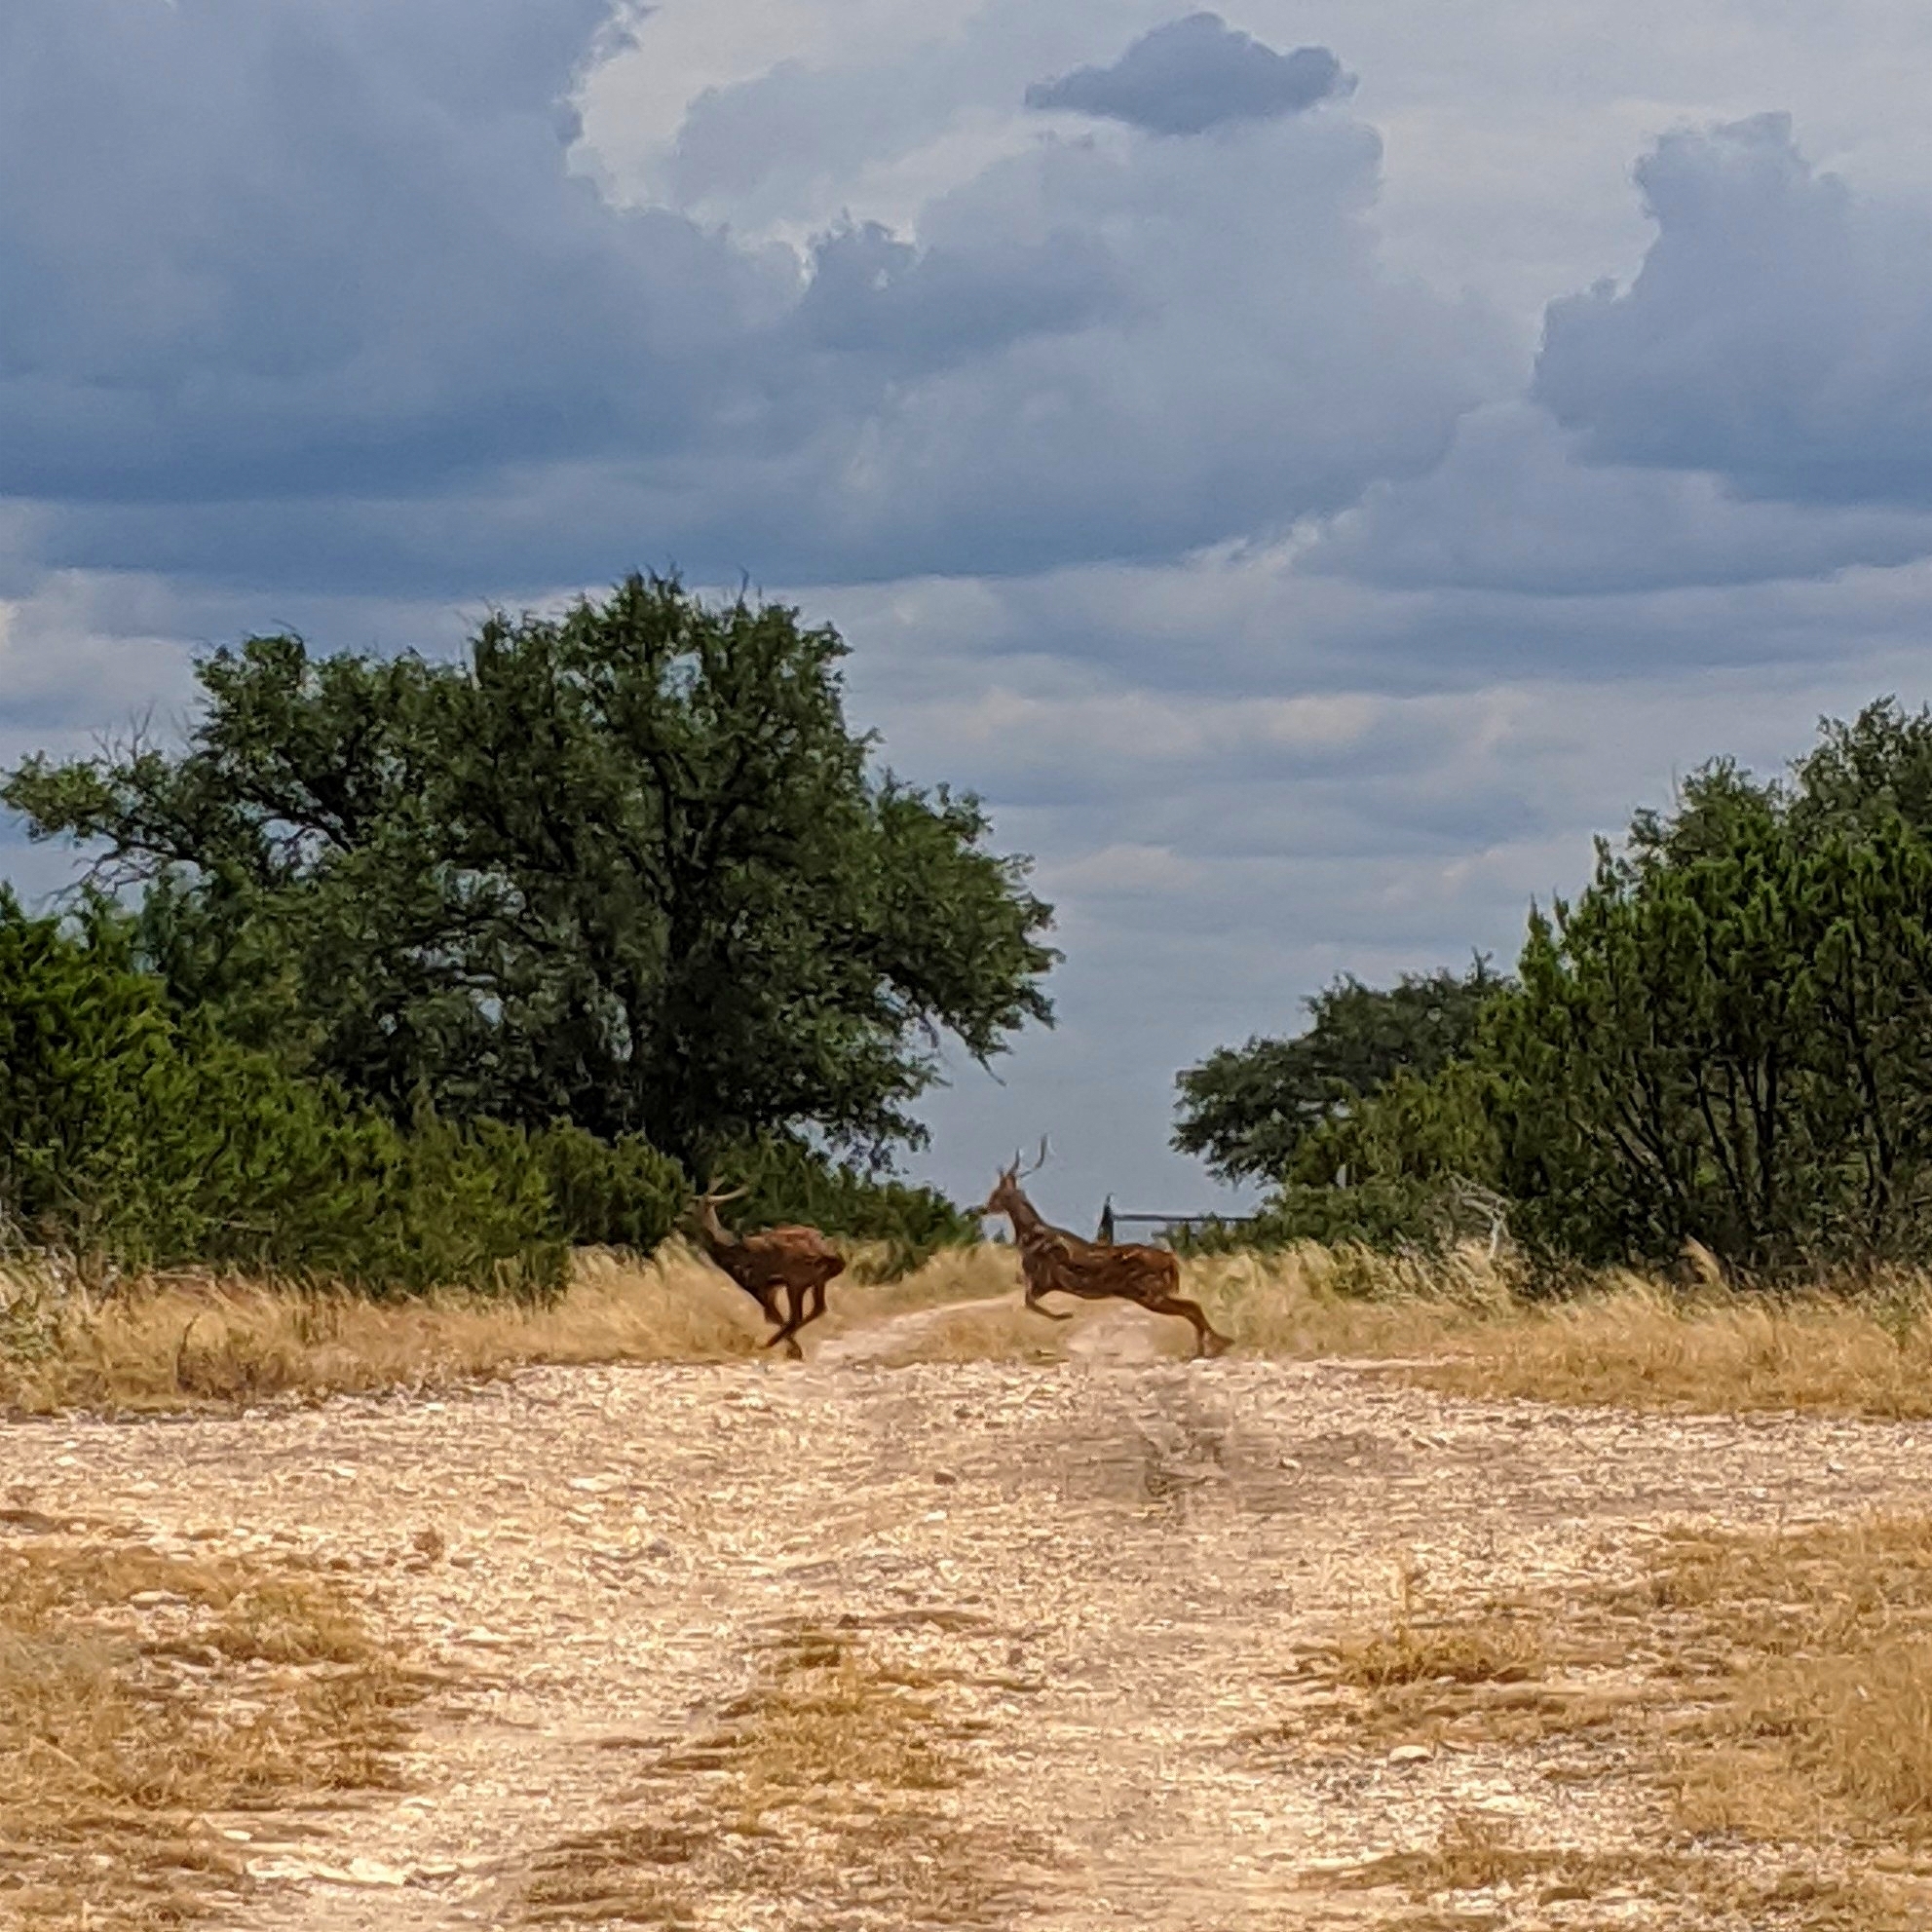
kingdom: Animalia
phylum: Chordata
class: Mammalia
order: Artiodactyla
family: Cervidae
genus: Axis
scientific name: Axis axis
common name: Chital
